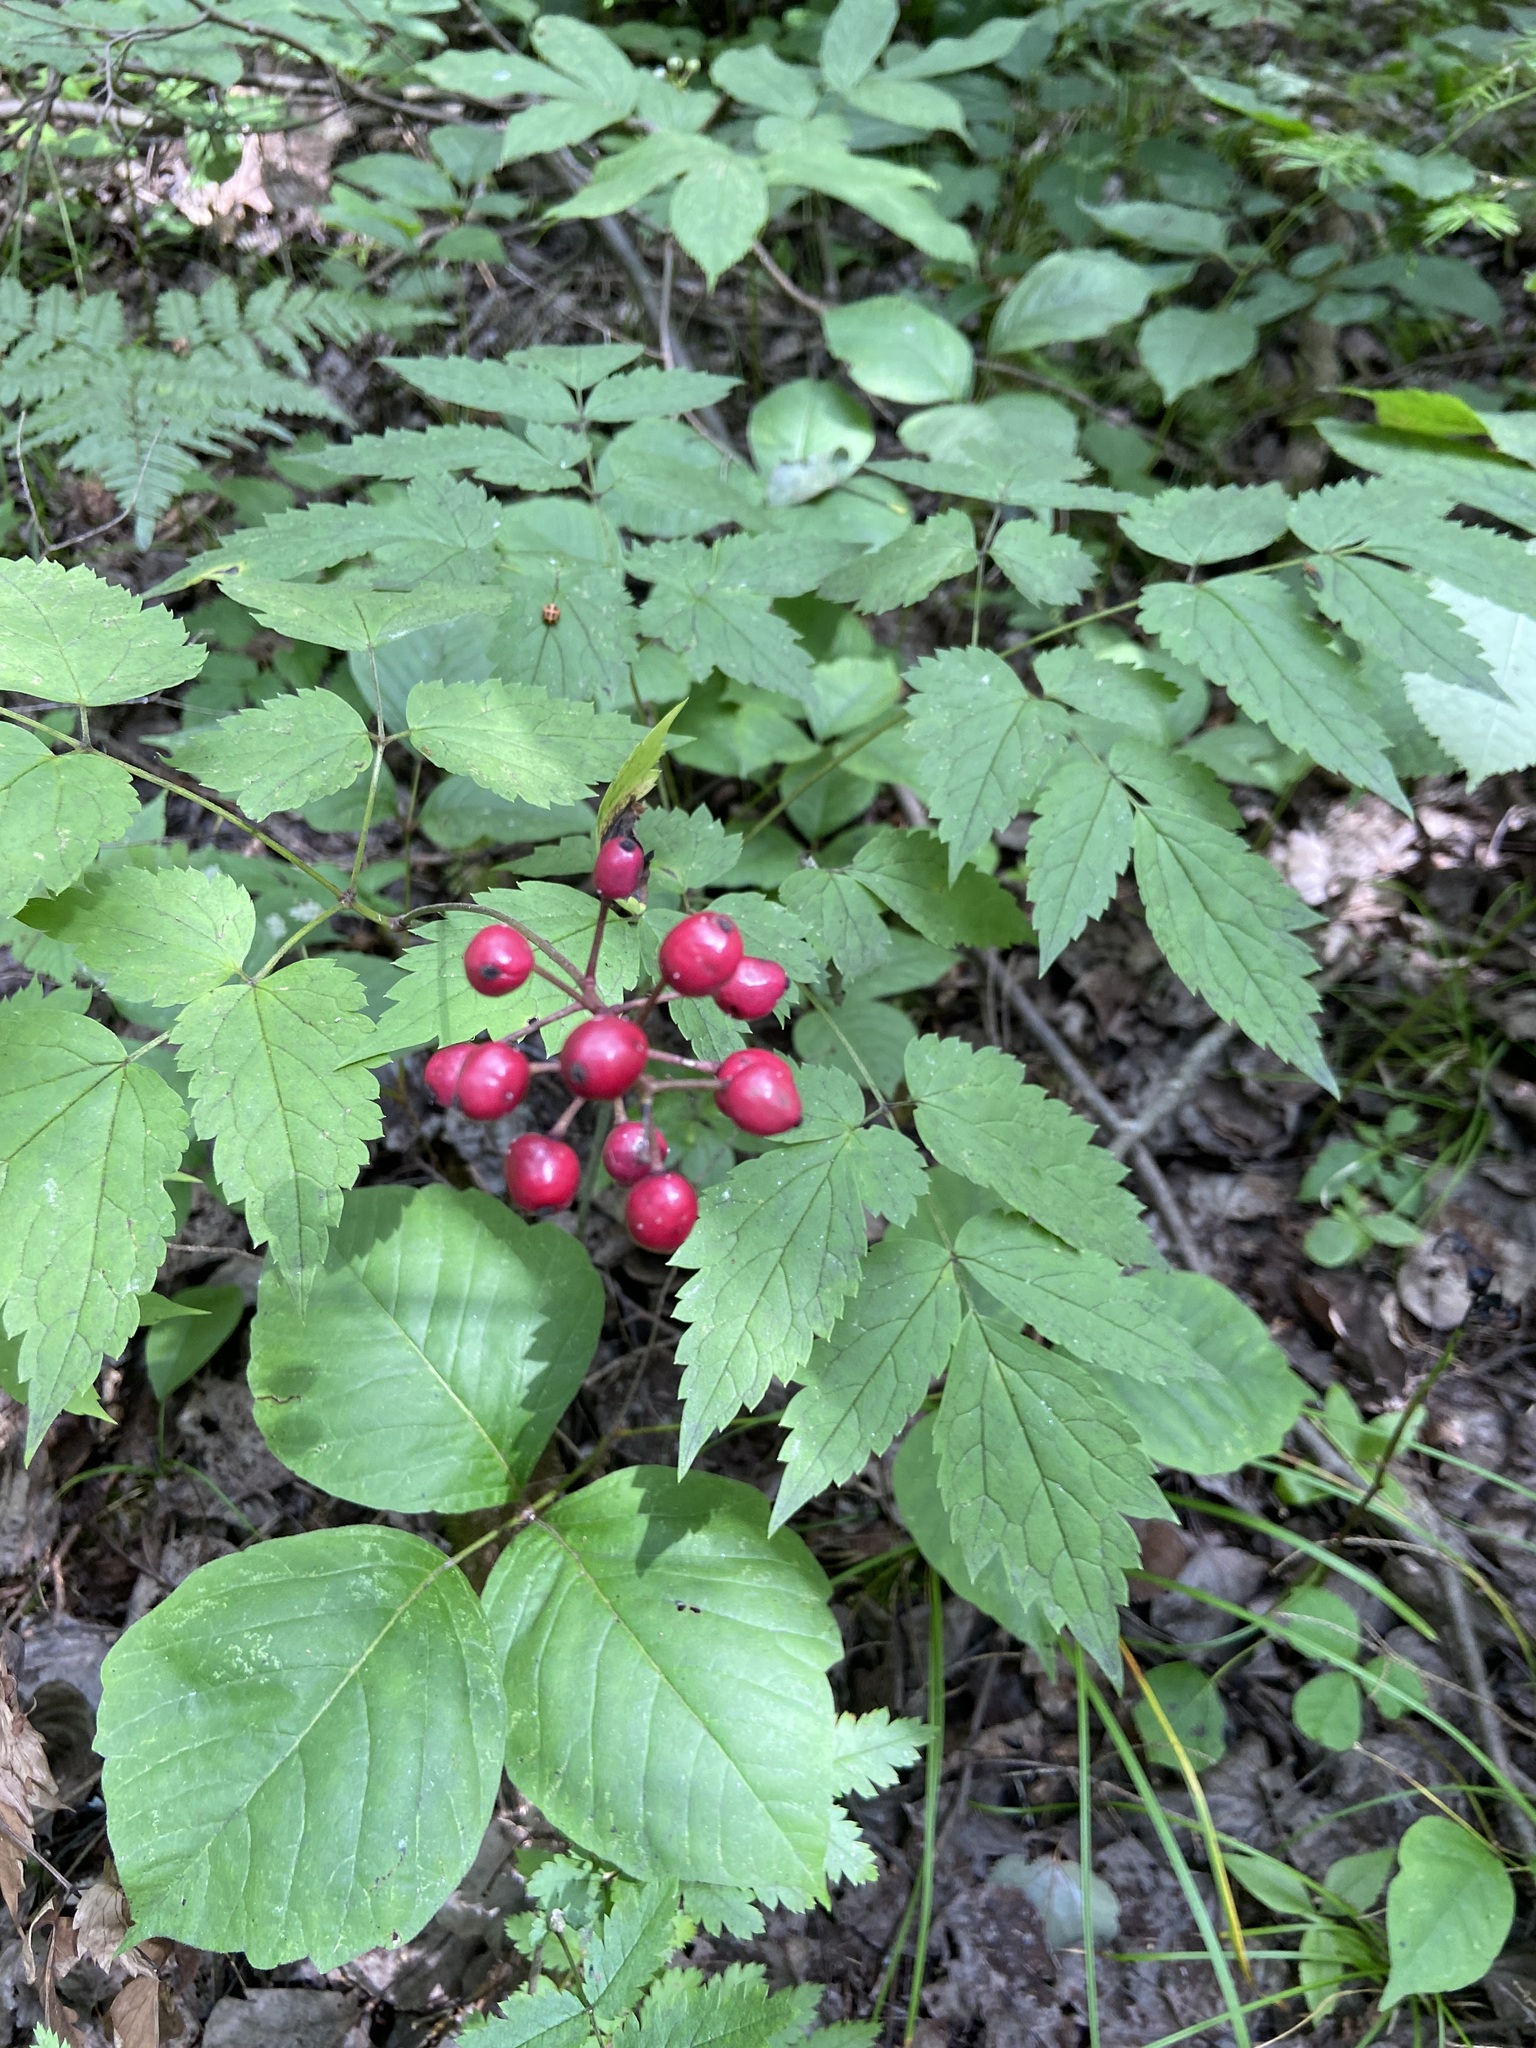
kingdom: Plantae
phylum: Tracheophyta
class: Magnoliopsida
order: Ranunculales
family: Ranunculaceae
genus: Actaea
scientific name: Actaea ludovici
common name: Ludovic's baneberry
